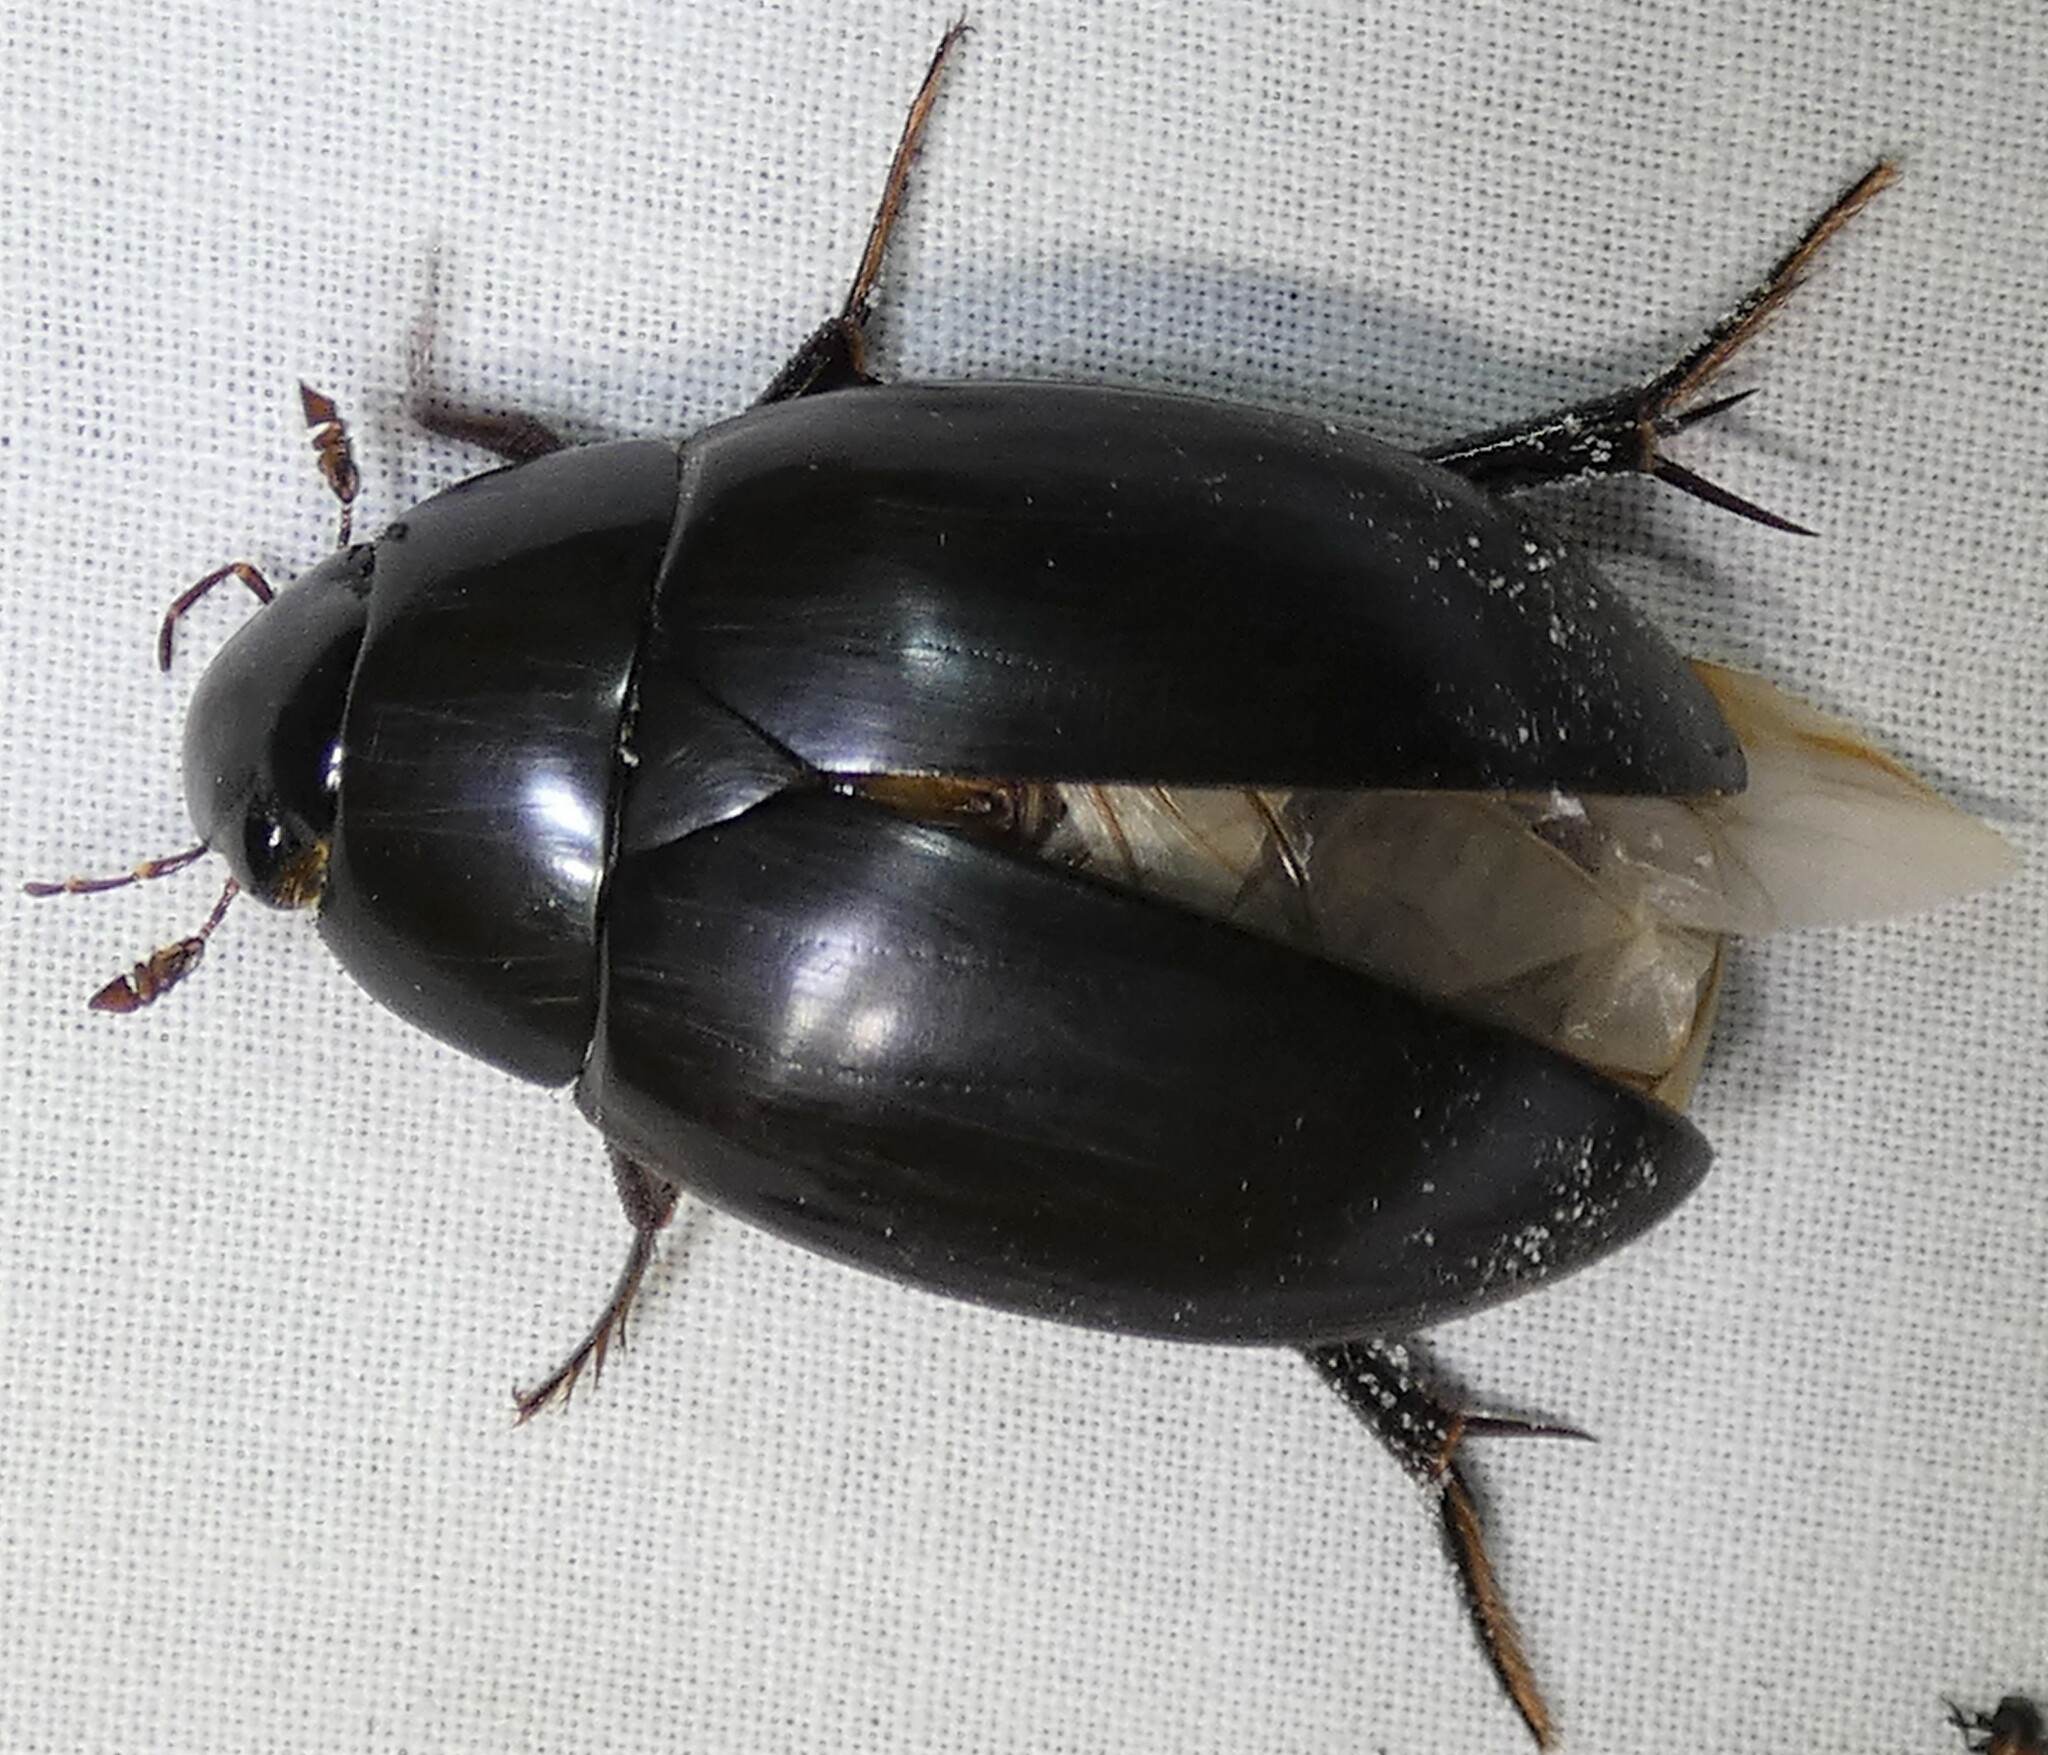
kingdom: Animalia
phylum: Arthropoda
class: Insecta
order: Coleoptera
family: Hydrophilidae
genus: Hydrophilus
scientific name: Hydrophilus ovatus
